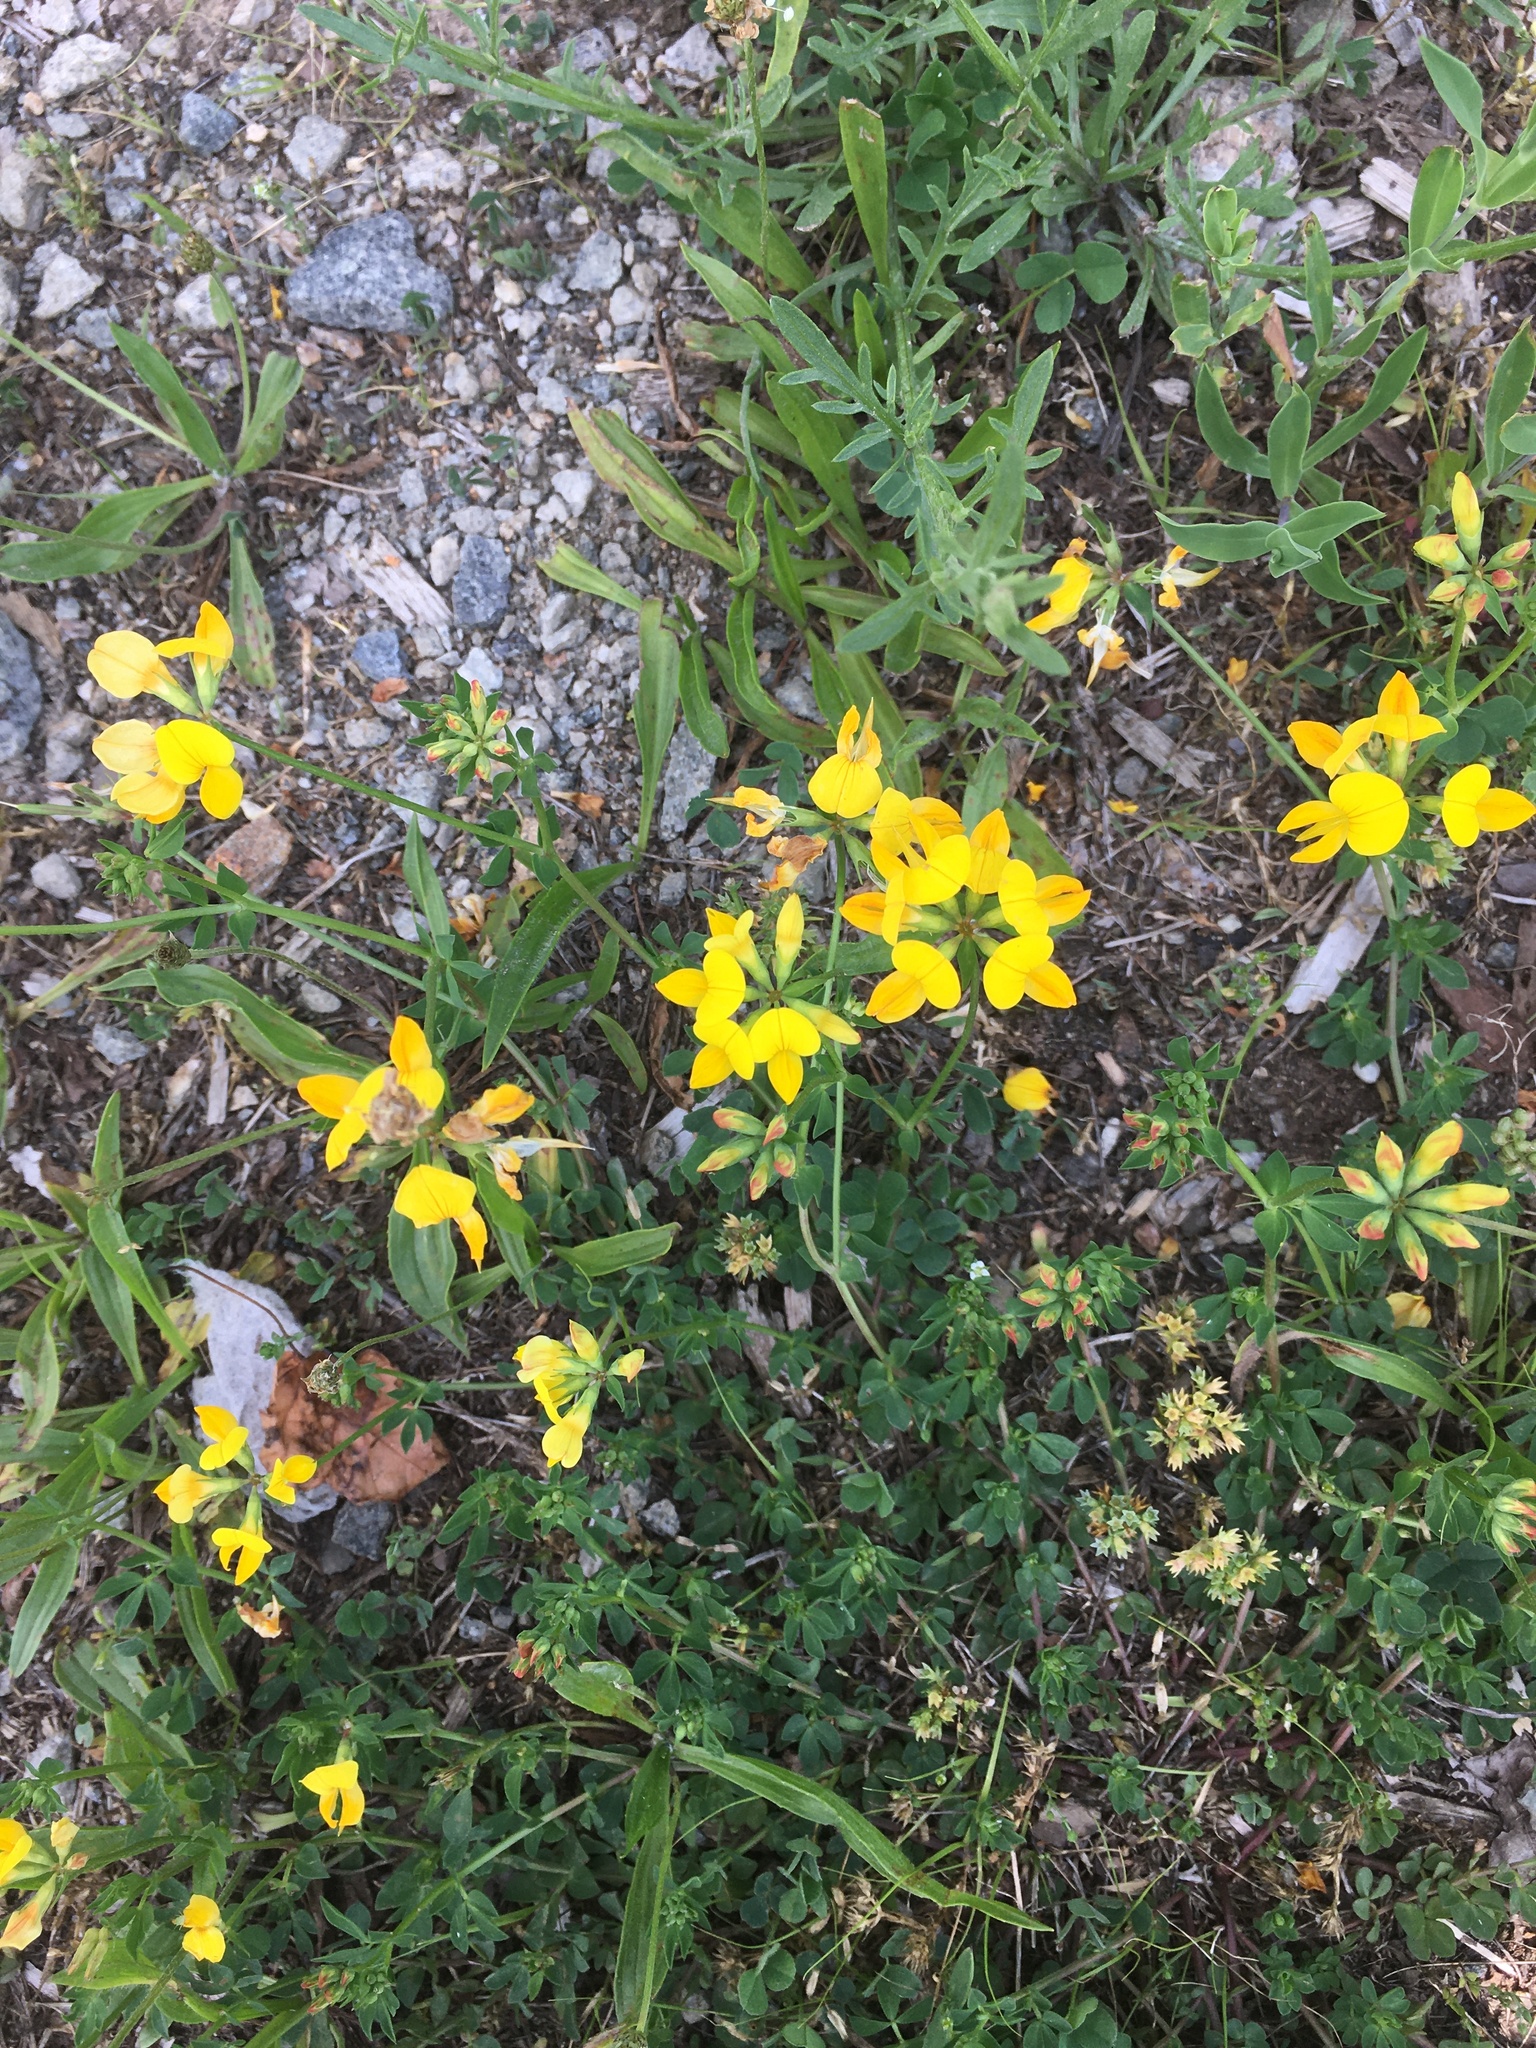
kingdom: Plantae
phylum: Tracheophyta
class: Magnoliopsida
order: Fabales
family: Fabaceae
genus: Lotus
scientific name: Lotus corniculatus
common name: Common bird's-foot-trefoil
